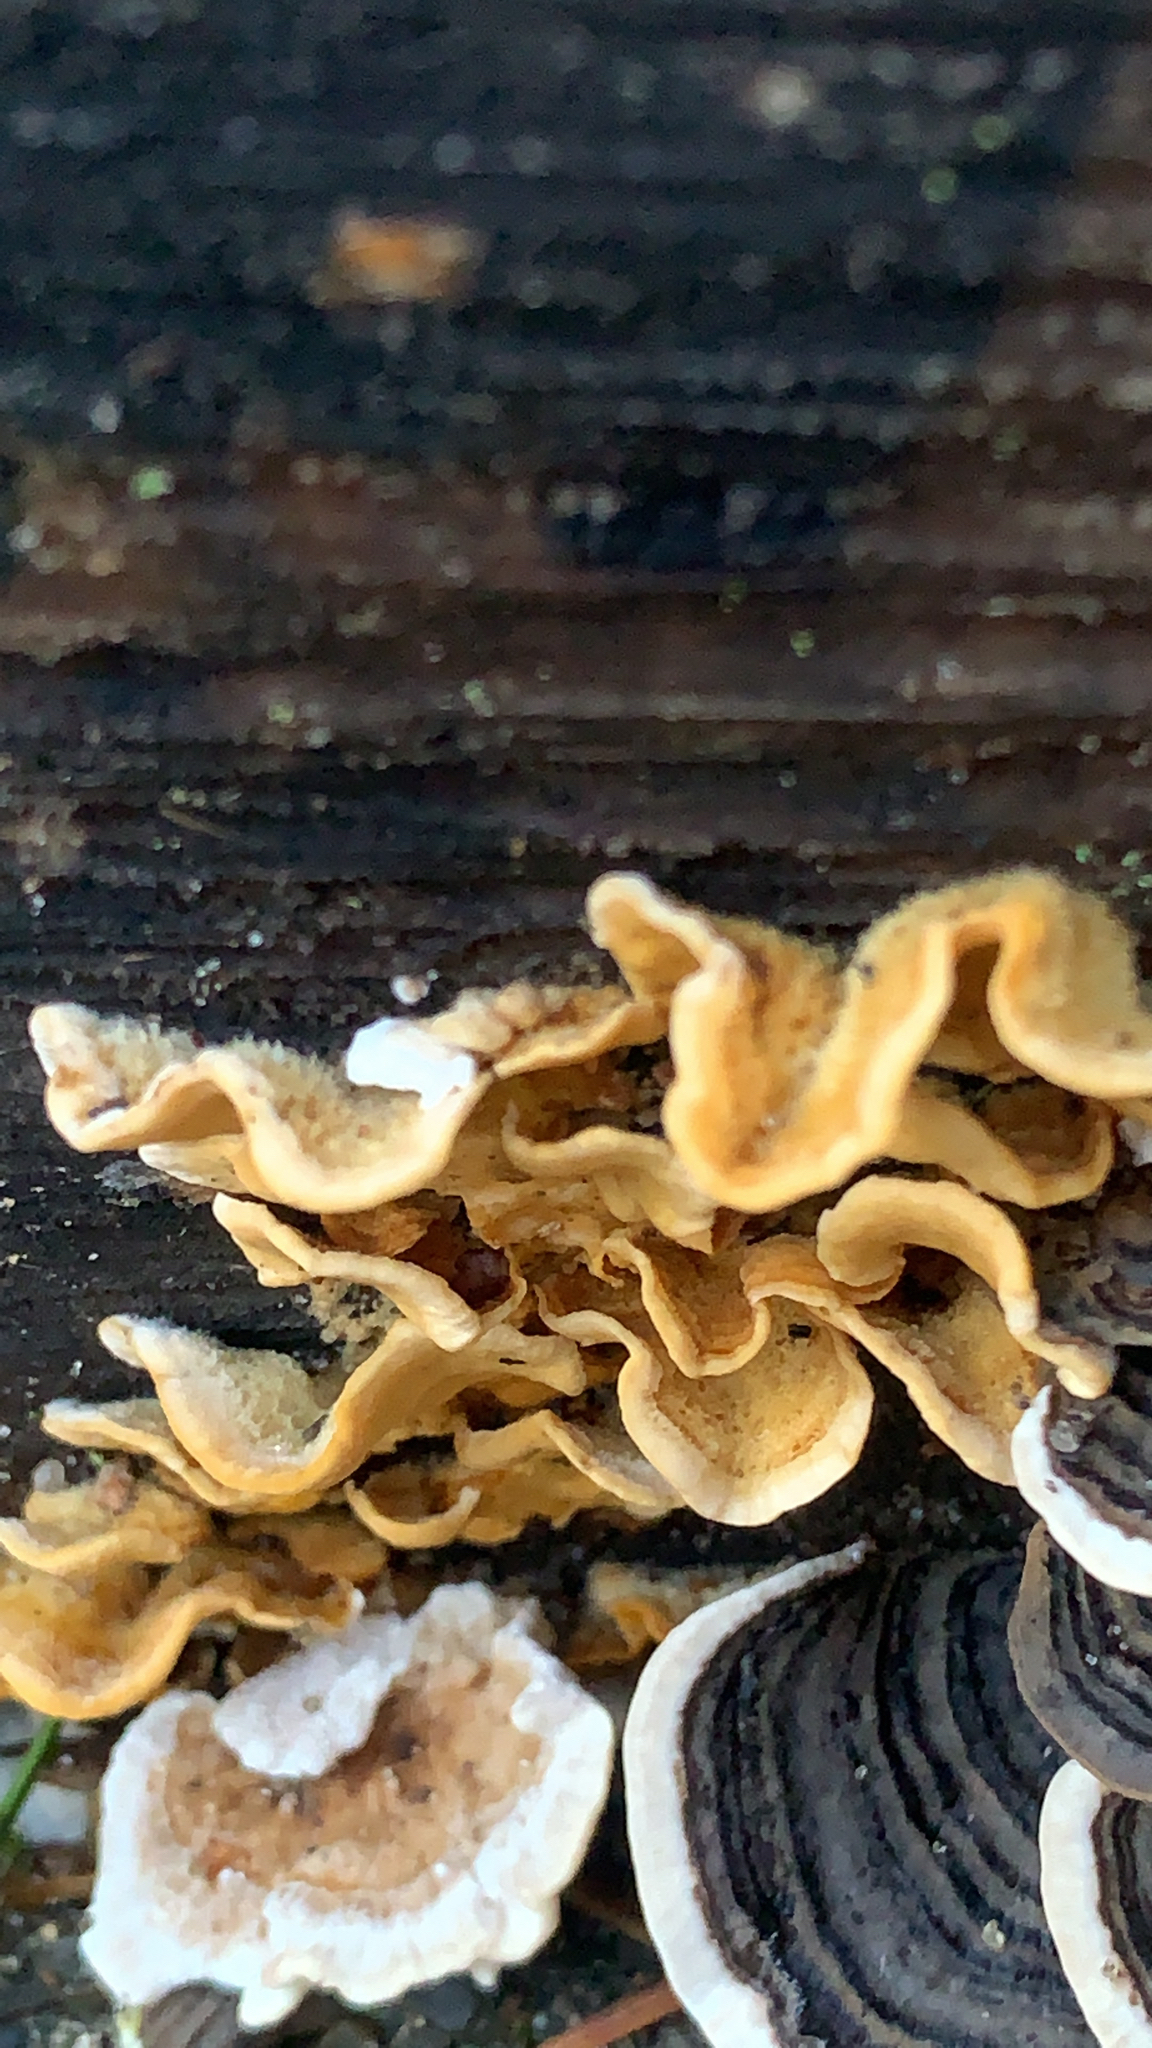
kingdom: Fungi
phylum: Basidiomycota
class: Agaricomycetes
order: Russulales
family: Stereaceae
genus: Stereum
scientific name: Stereum hirsutum
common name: Hairy curtain crust
